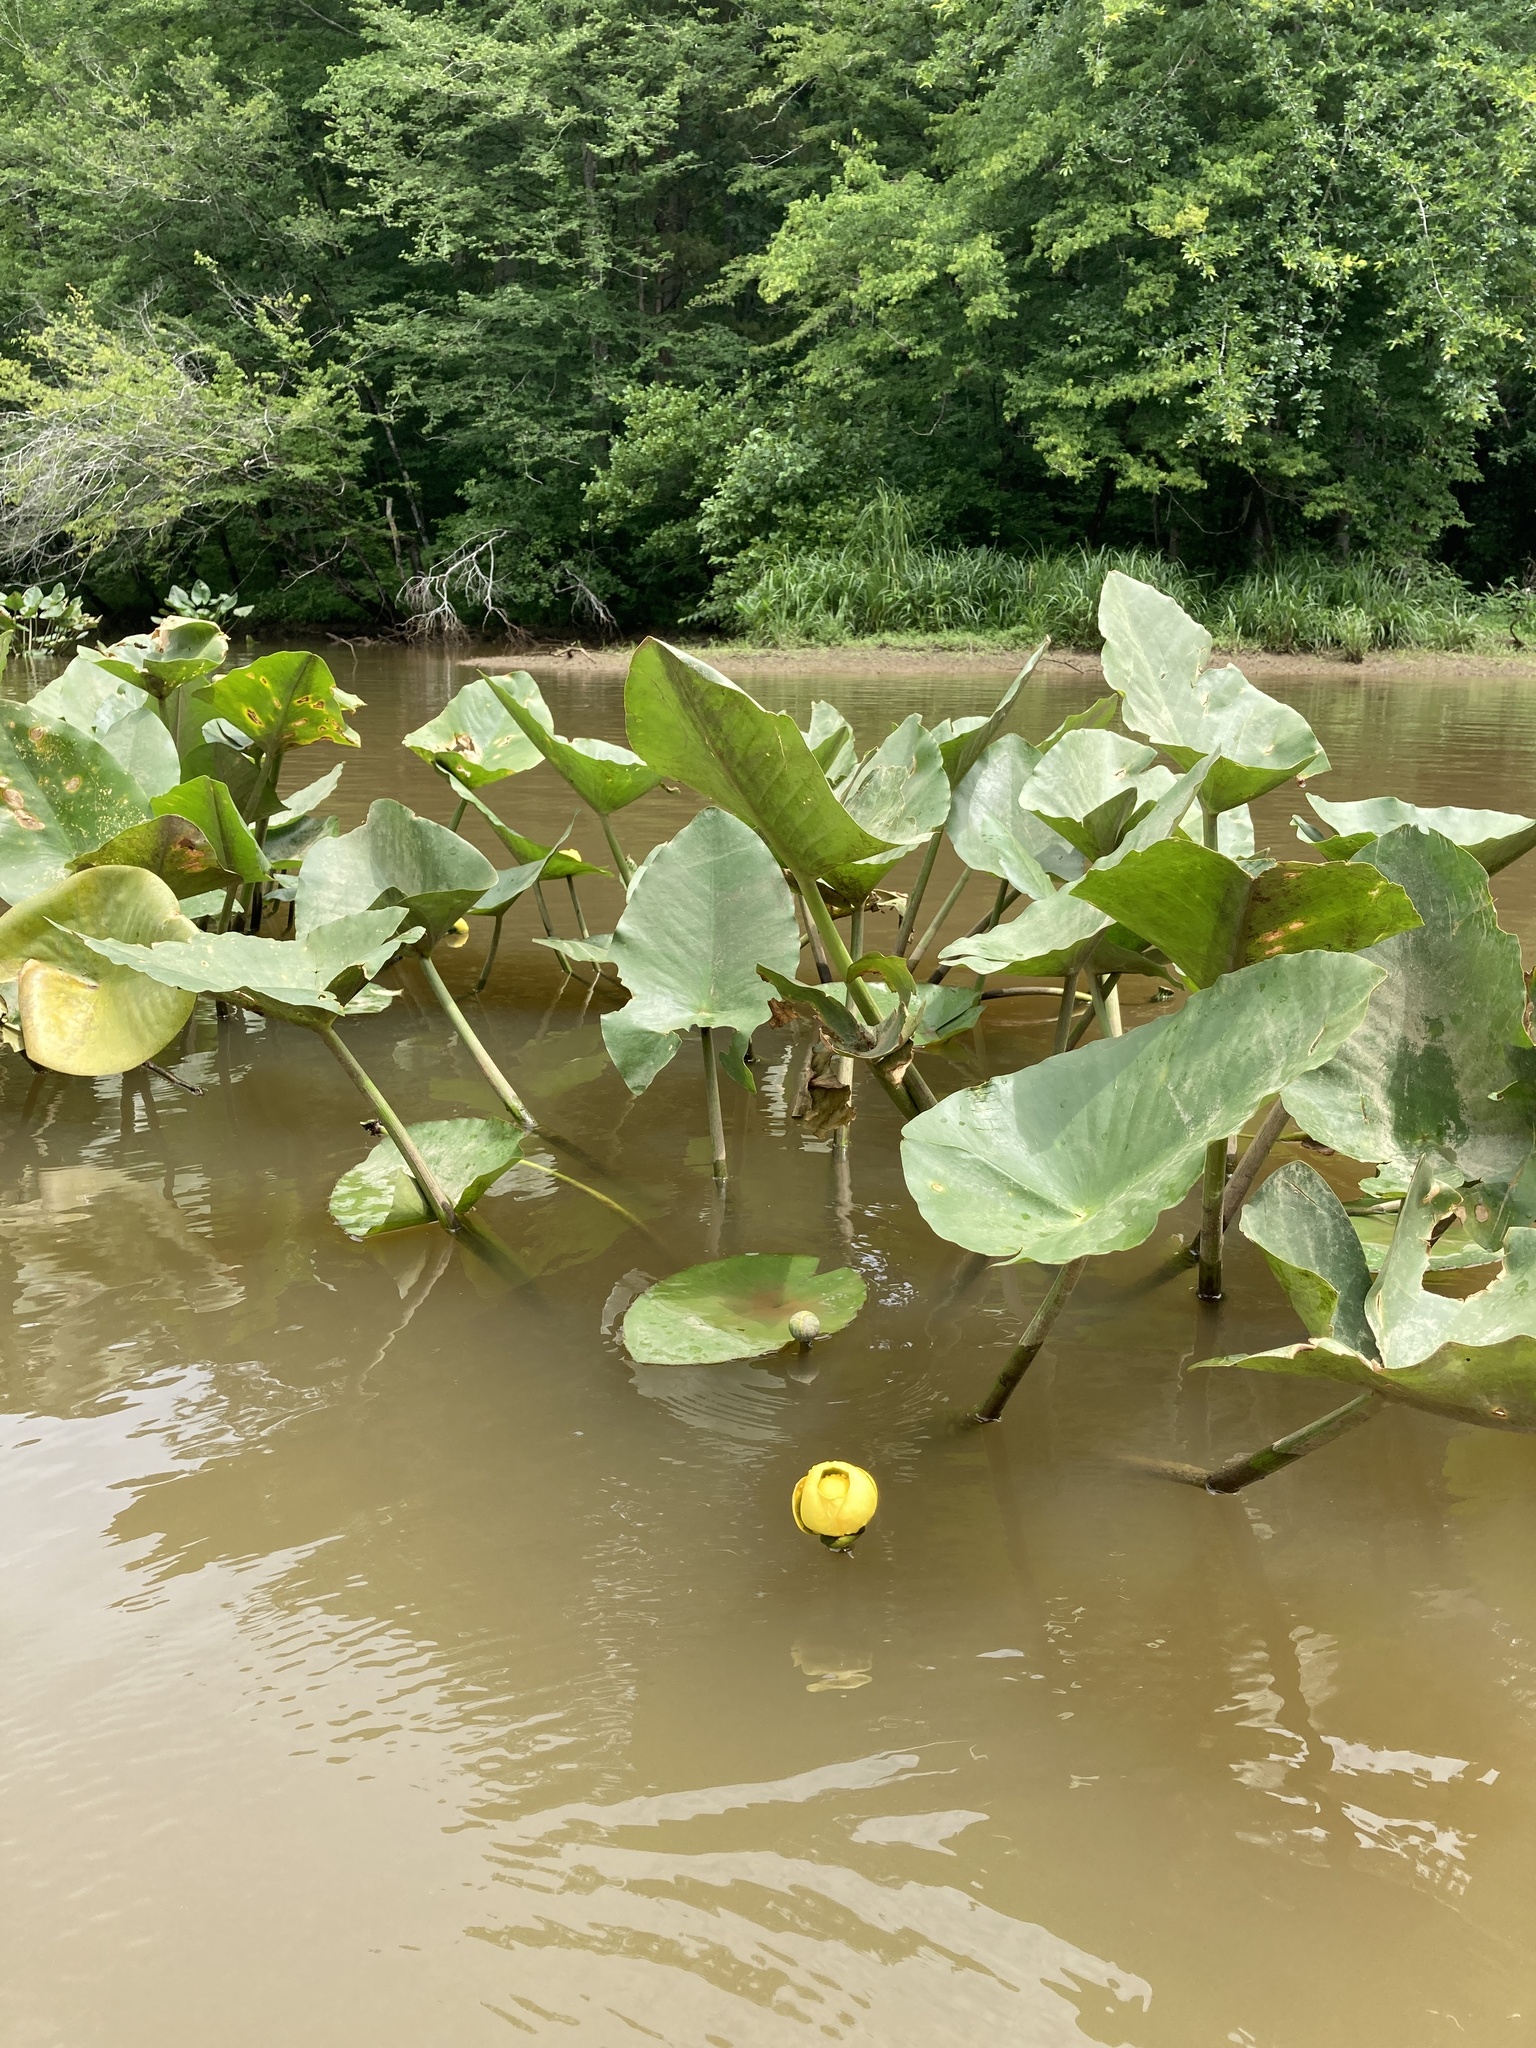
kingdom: Plantae
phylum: Tracheophyta
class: Magnoliopsida
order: Nymphaeales
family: Nymphaeaceae
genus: Nuphar
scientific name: Nuphar advena
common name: Spatter-dock
